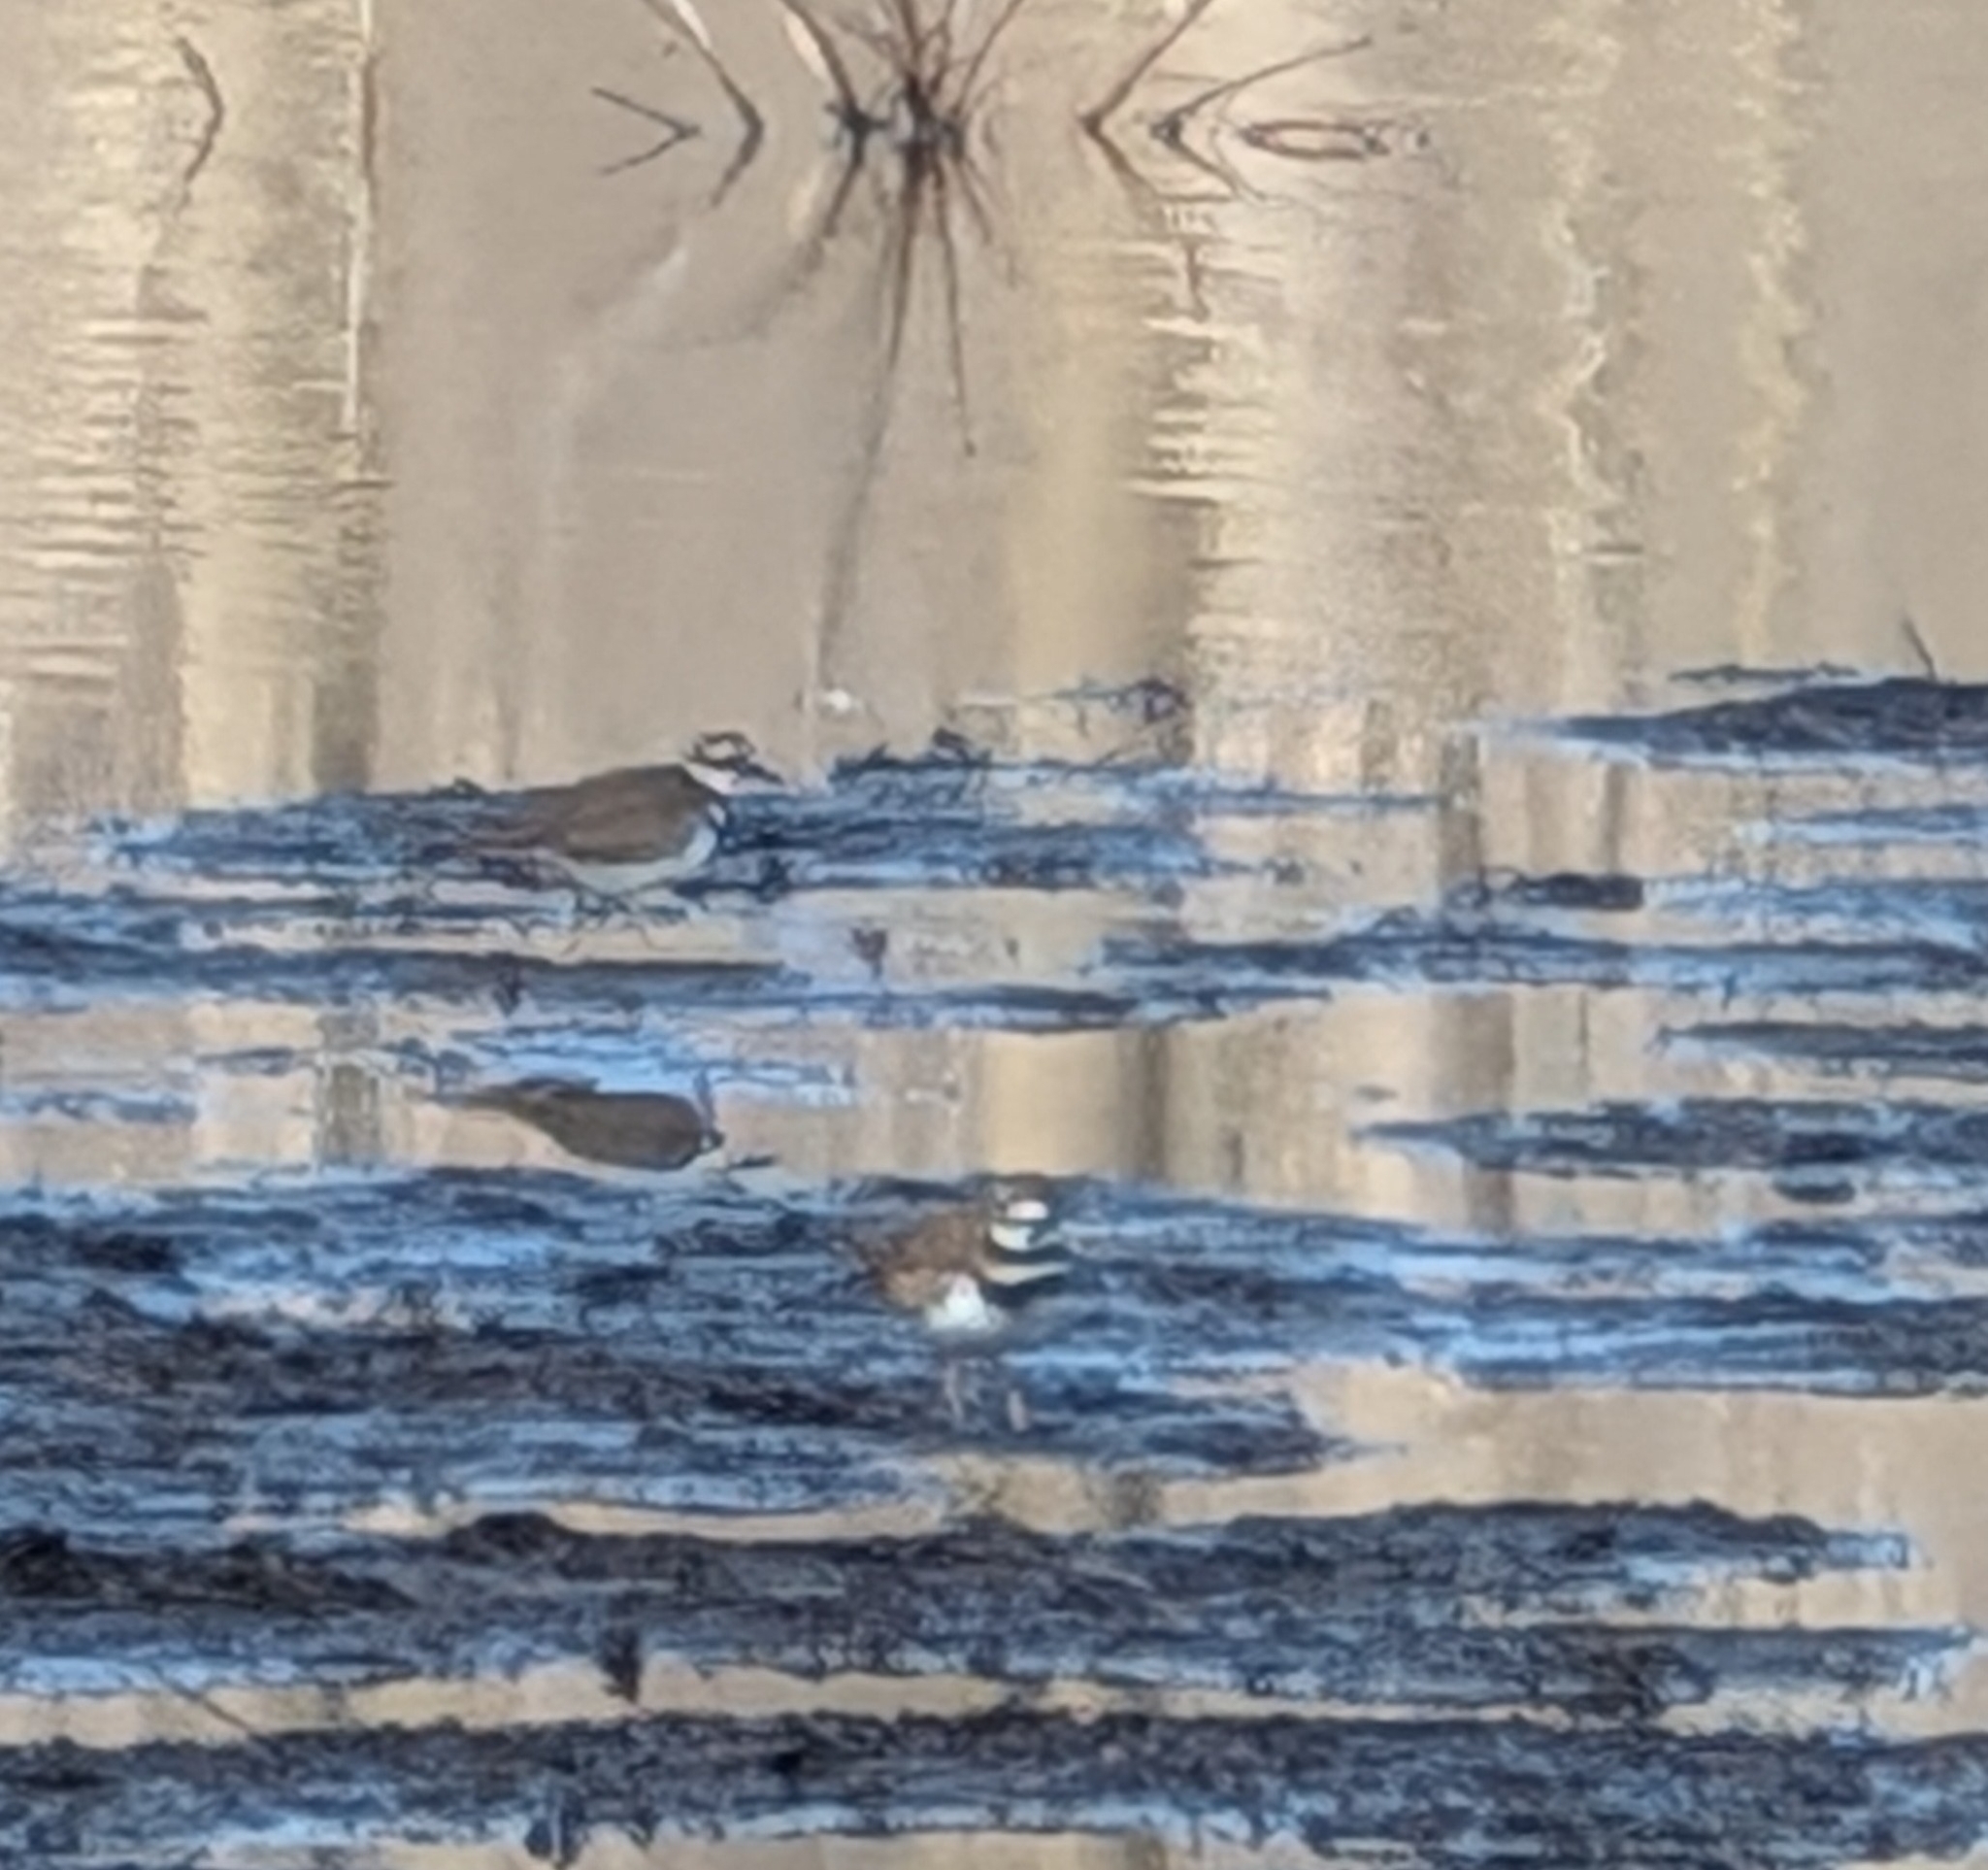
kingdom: Animalia
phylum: Chordata
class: Aves
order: Charadriiformes
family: Charadriidae
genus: Charadrius
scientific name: Charadrius vociferus
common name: Killdeer
